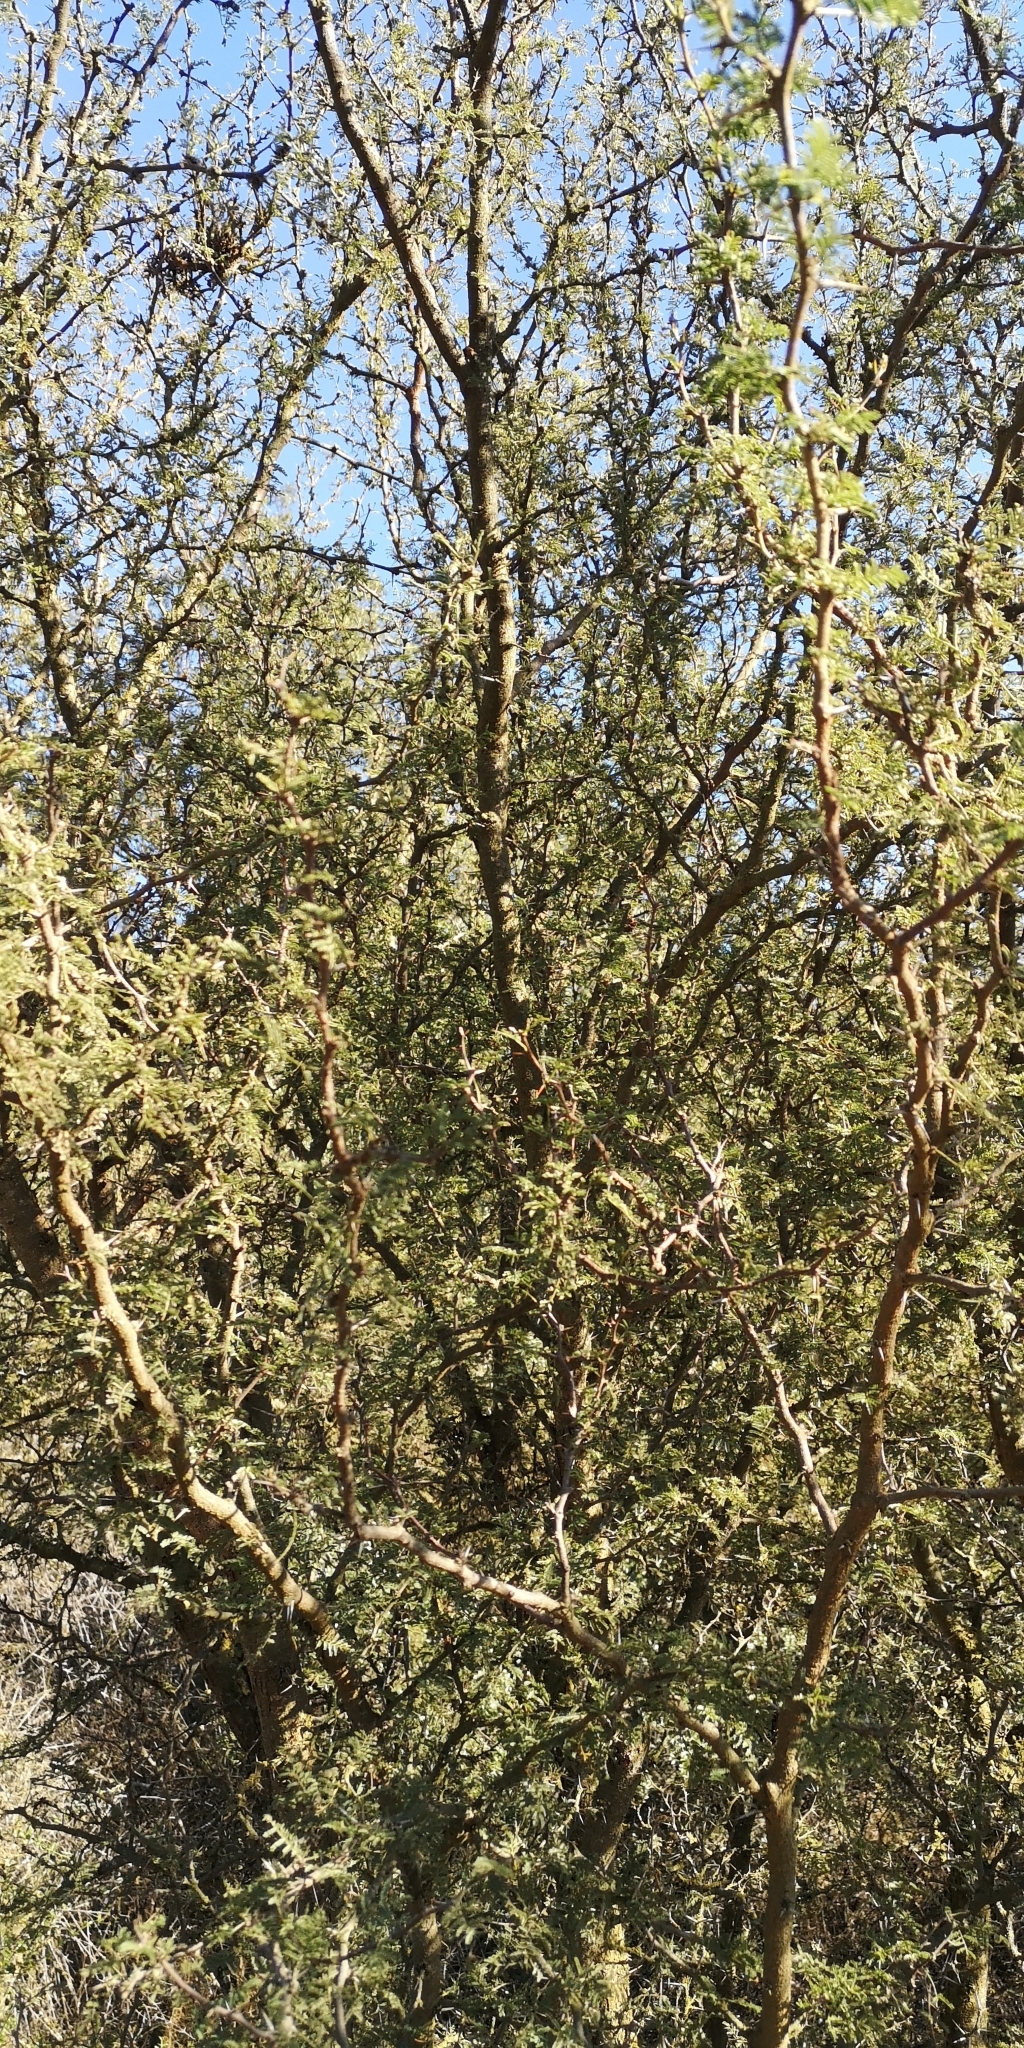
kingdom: Plantae
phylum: Tracheophyta
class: Magnoliopsida
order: Fabales
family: Fabaceae
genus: Vachellia
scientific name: Vachellia caven
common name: Roman cassie
